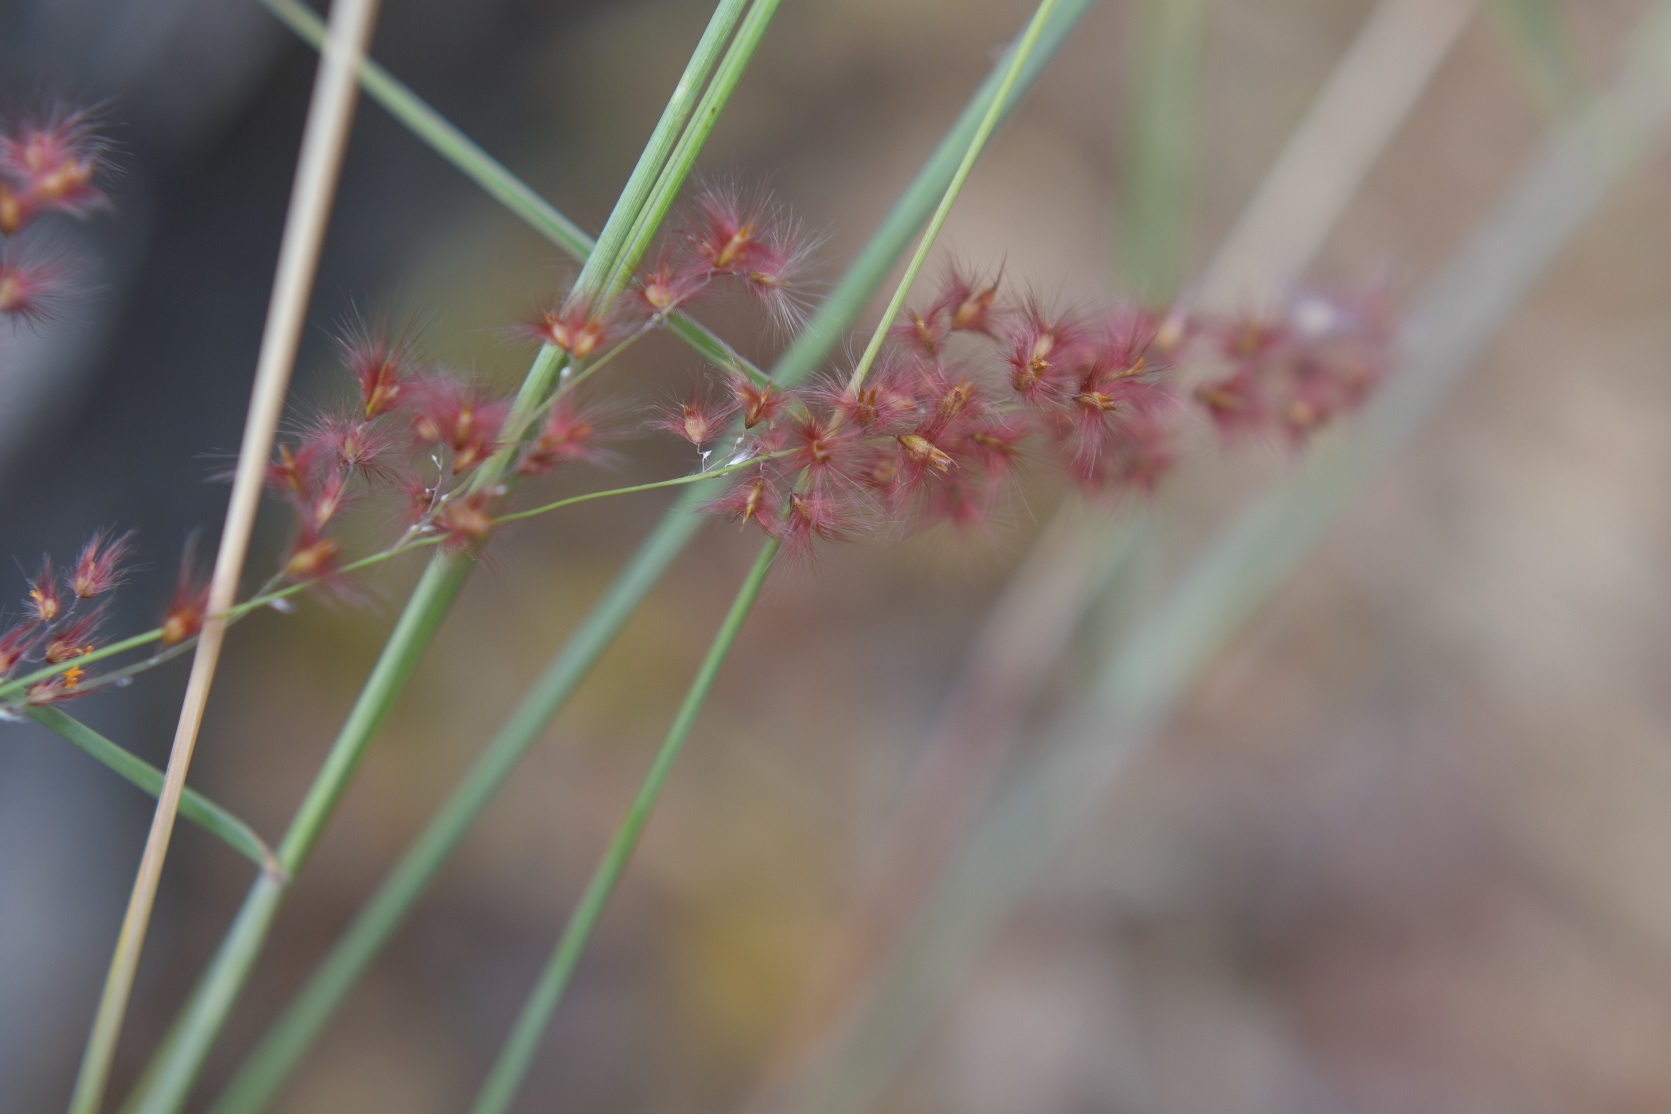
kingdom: Plantae
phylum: Tracheophyta
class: Liliopsida
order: Poales
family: Poaceae
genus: Melinis
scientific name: Melinis repens
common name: Rose natal grass
